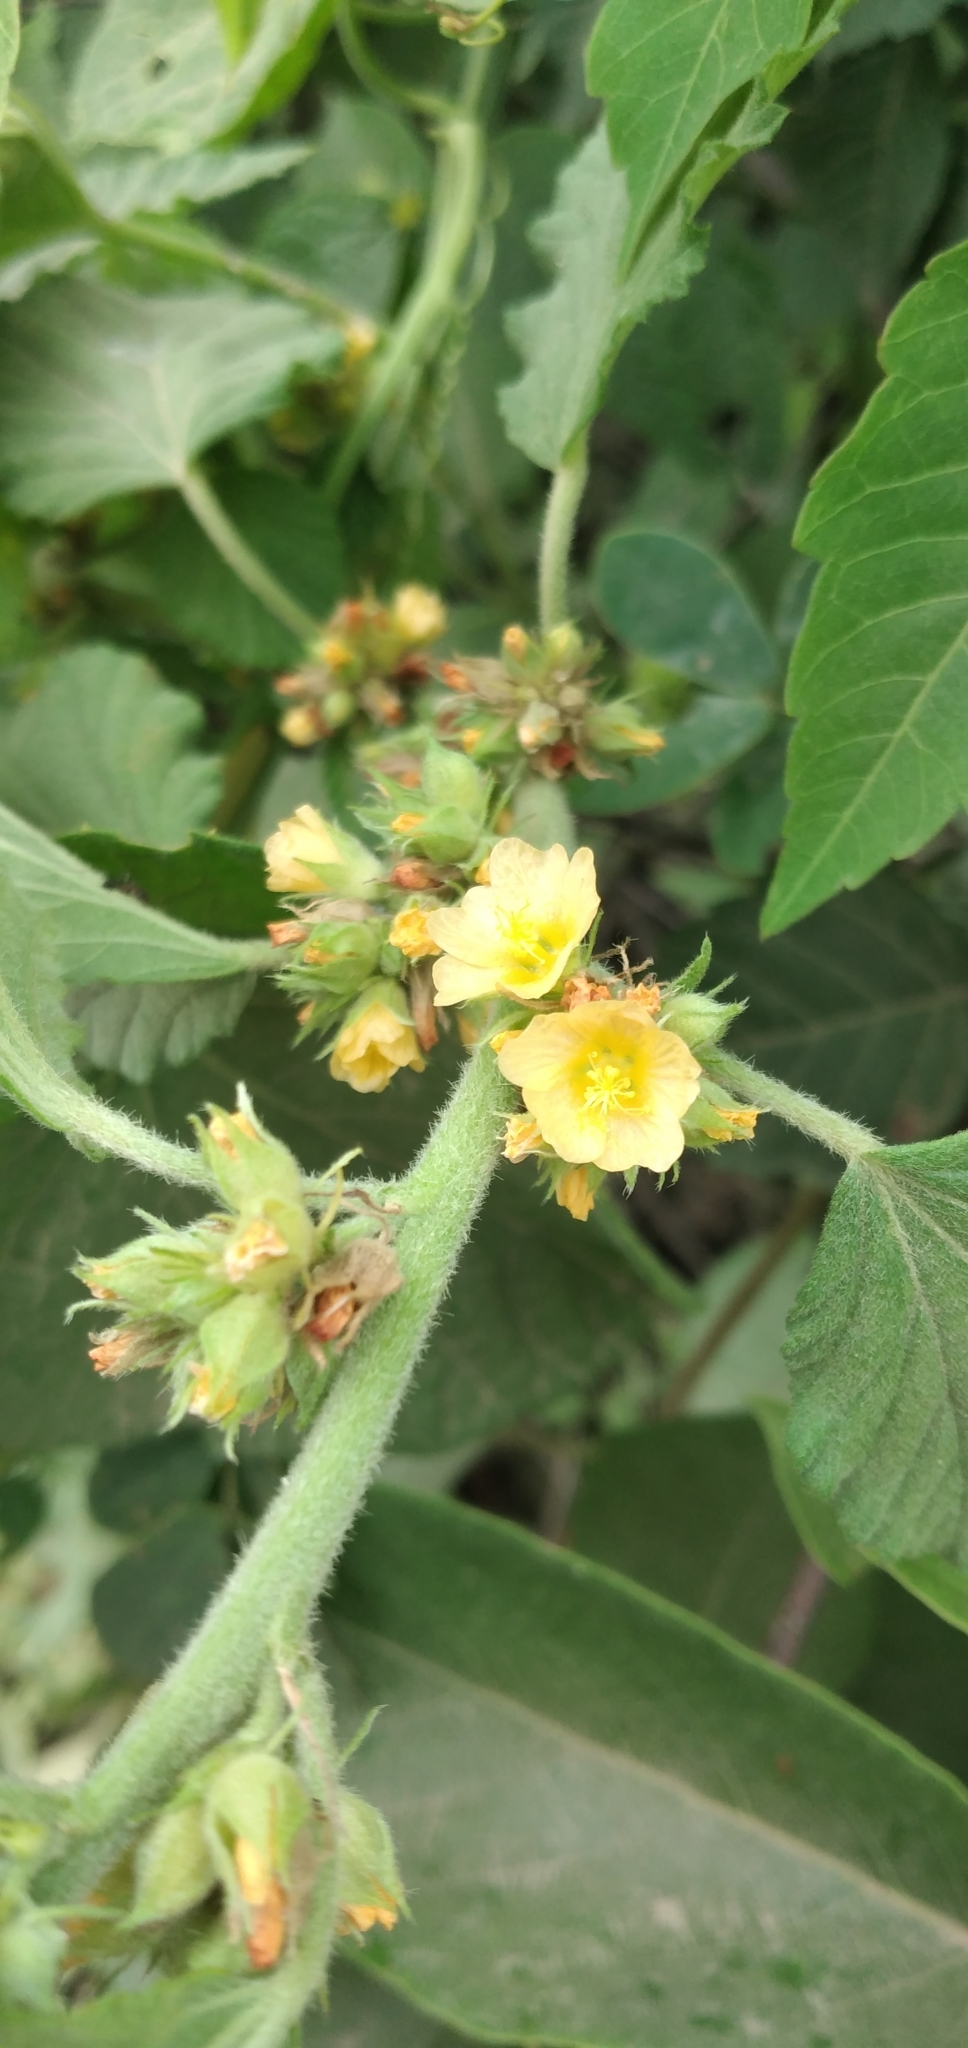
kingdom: Plantae
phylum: Tracheophyta
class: Magnoliopsida
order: Malvales
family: Malvaceae
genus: Malvastrum
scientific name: Malvastrum coromandelianum
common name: Threelobe false mallow
